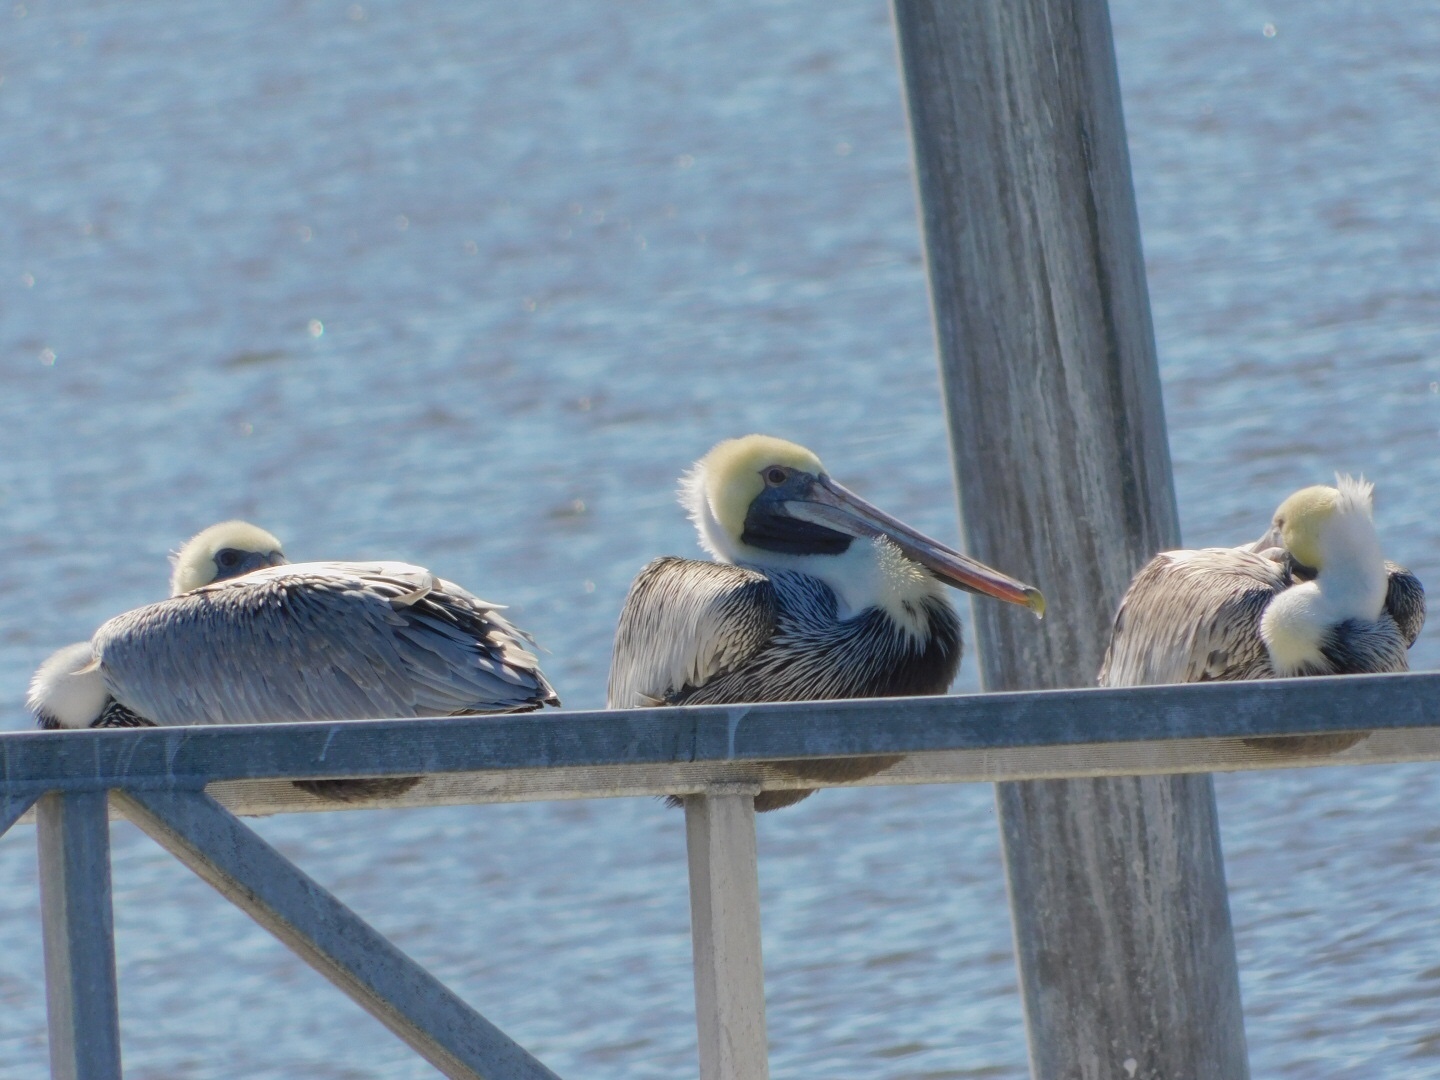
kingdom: Animalia
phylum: Chordata
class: Aves
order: Pelecaniformes
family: Pelecanidae
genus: Pelecanus
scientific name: Pelecanus occidentalis
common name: Brown pelican
